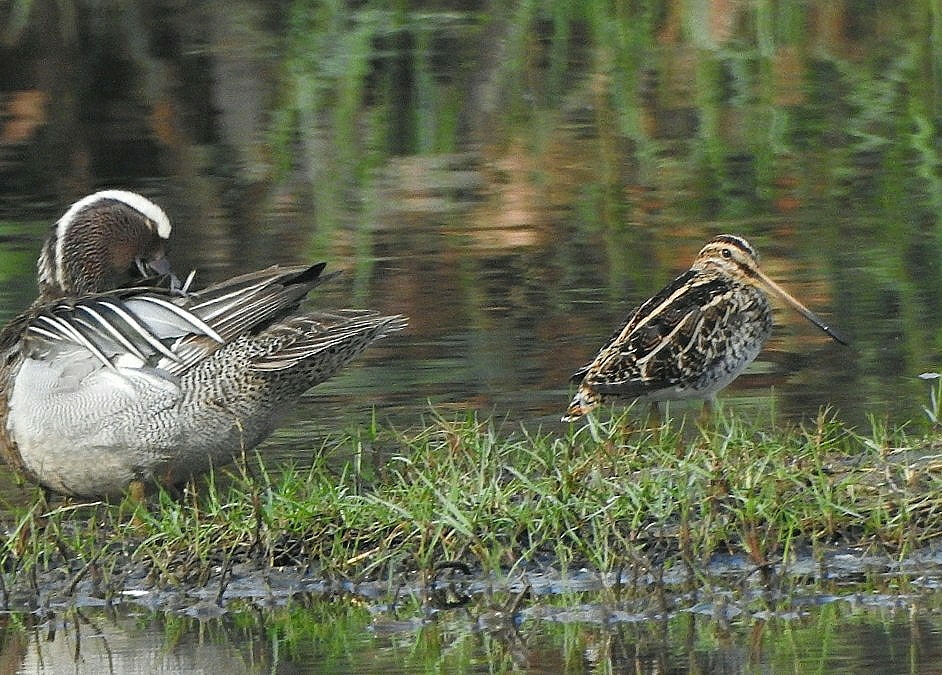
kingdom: Animalia
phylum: Chordata
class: Aves
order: Charadriiformes
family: Scolopacidae
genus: Gallinago
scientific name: Gallinago gallinago
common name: Common snipe
